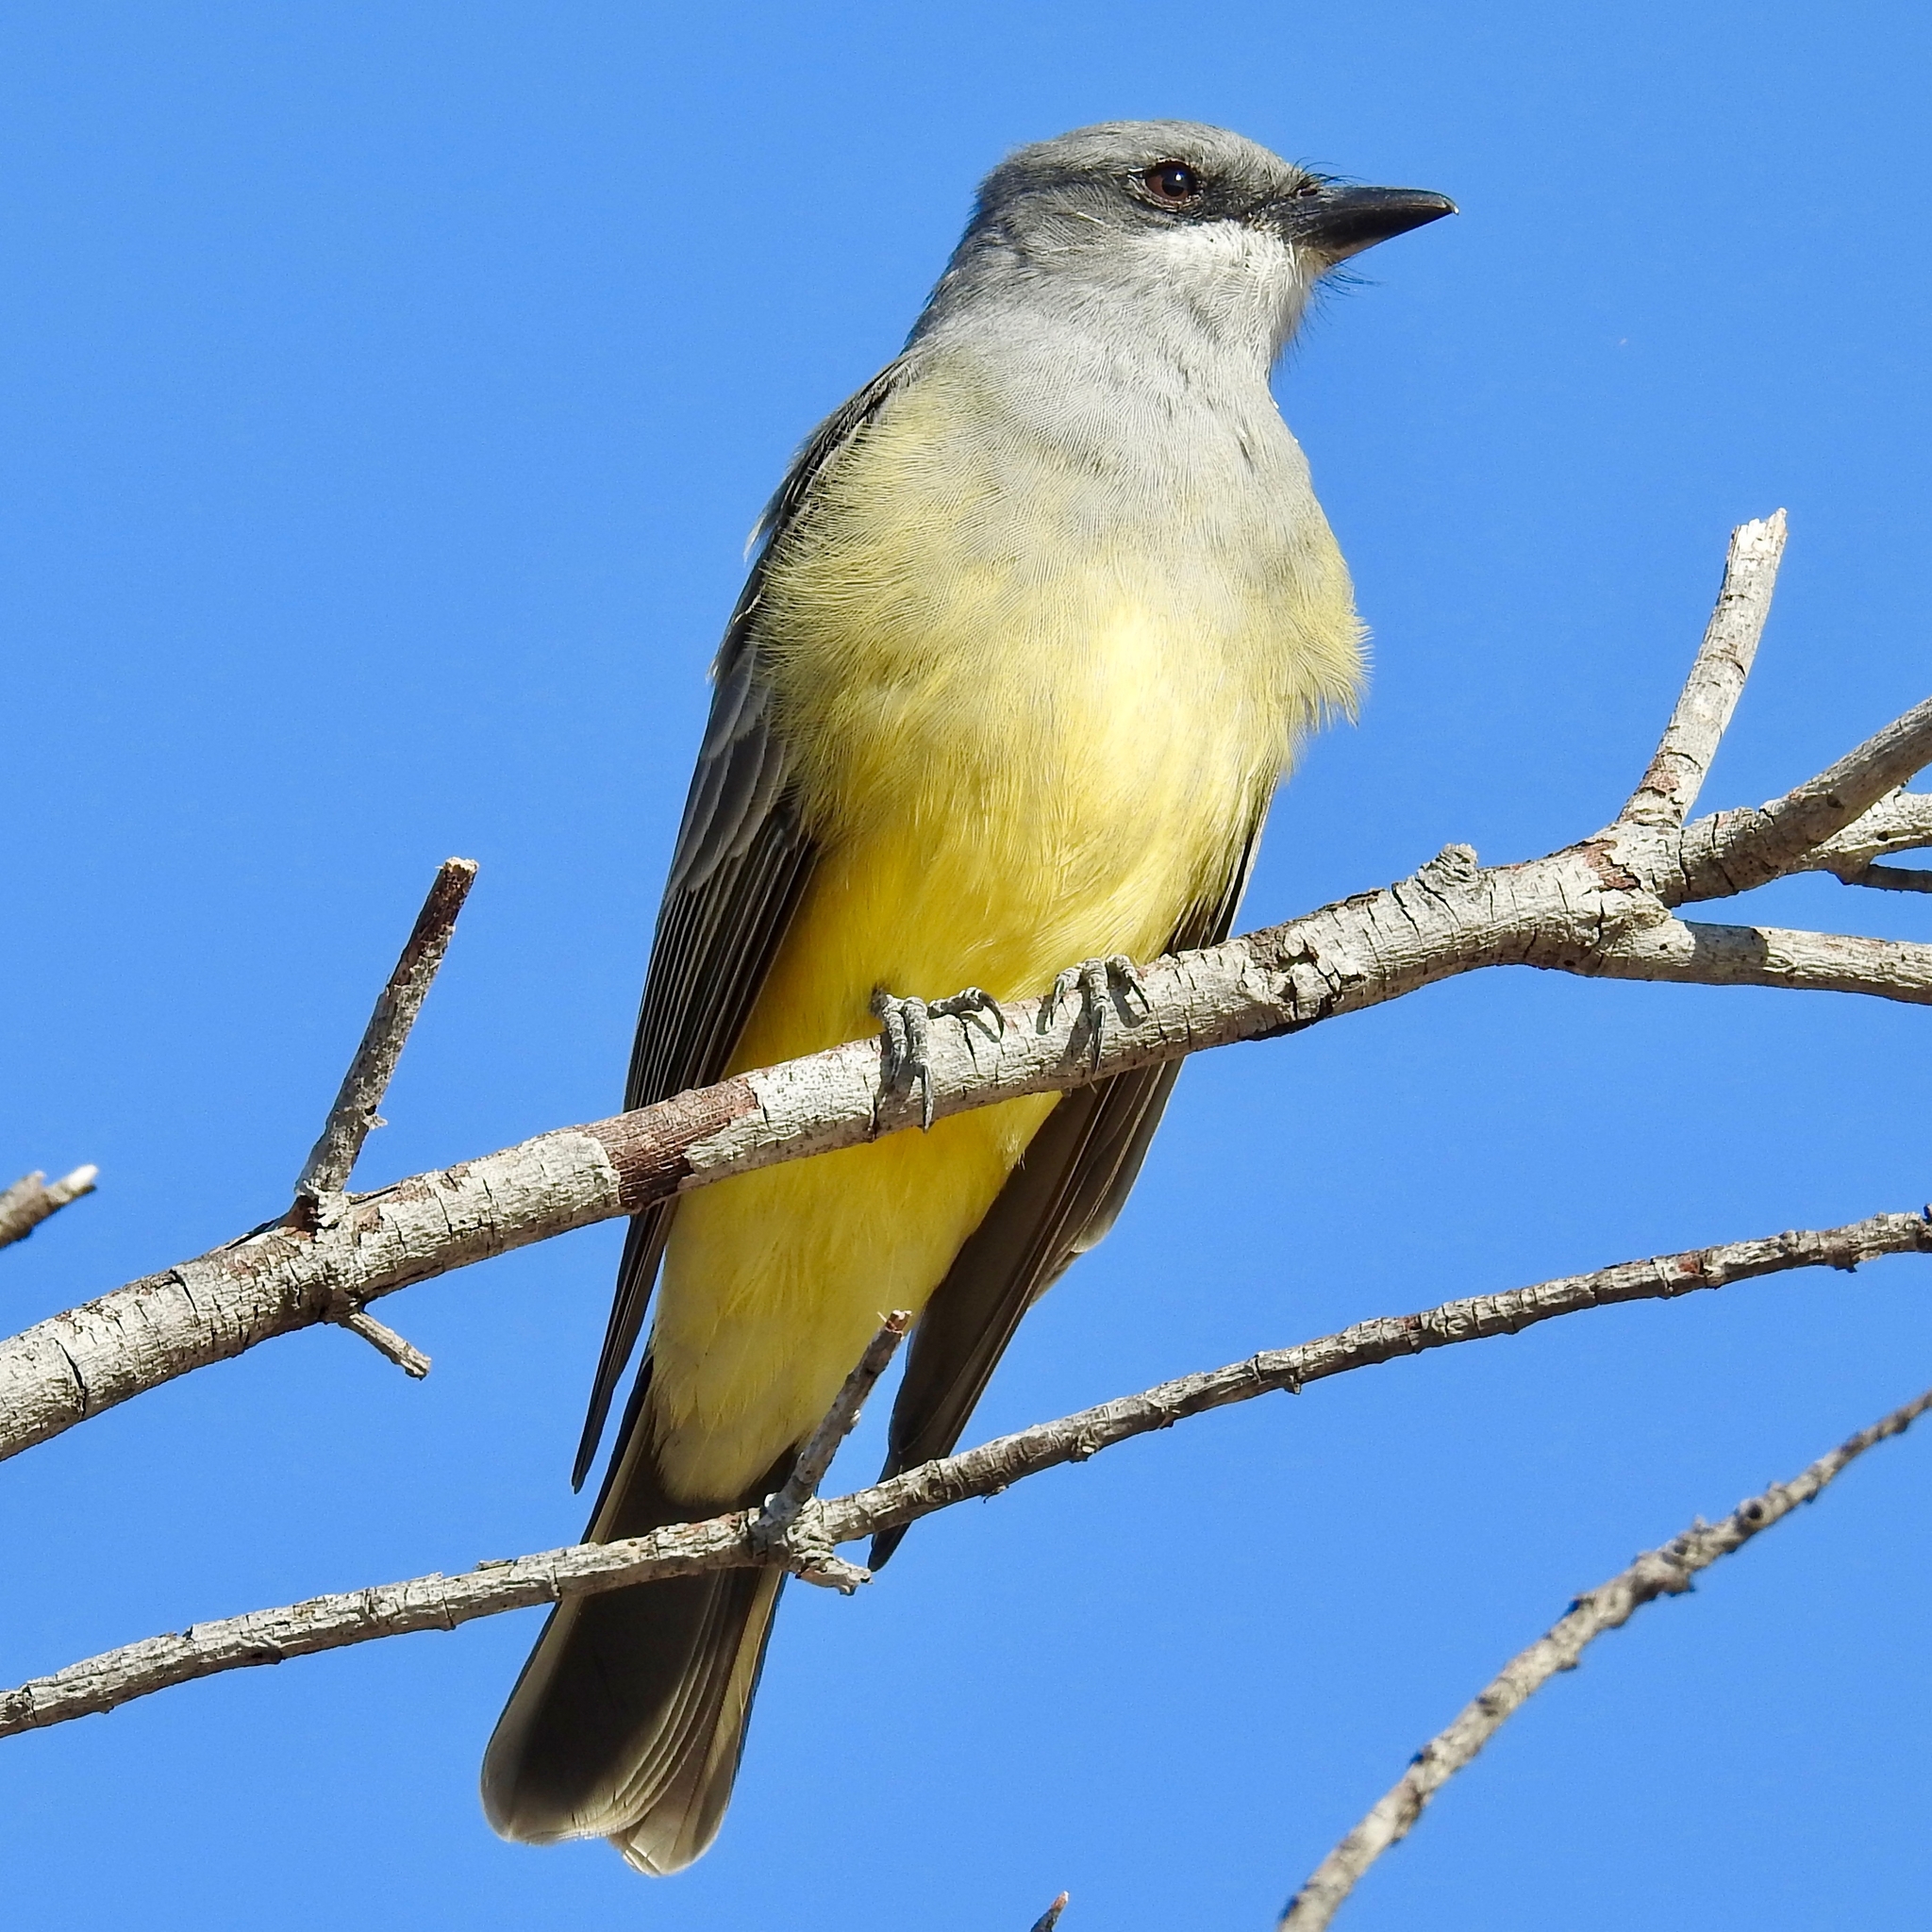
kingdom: Animalia
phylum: Chordata
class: Aves
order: Passeriformes
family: Tyrannidae
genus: Tyrannus
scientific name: Tyrannus vociferans
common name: Cassin's kingbird
